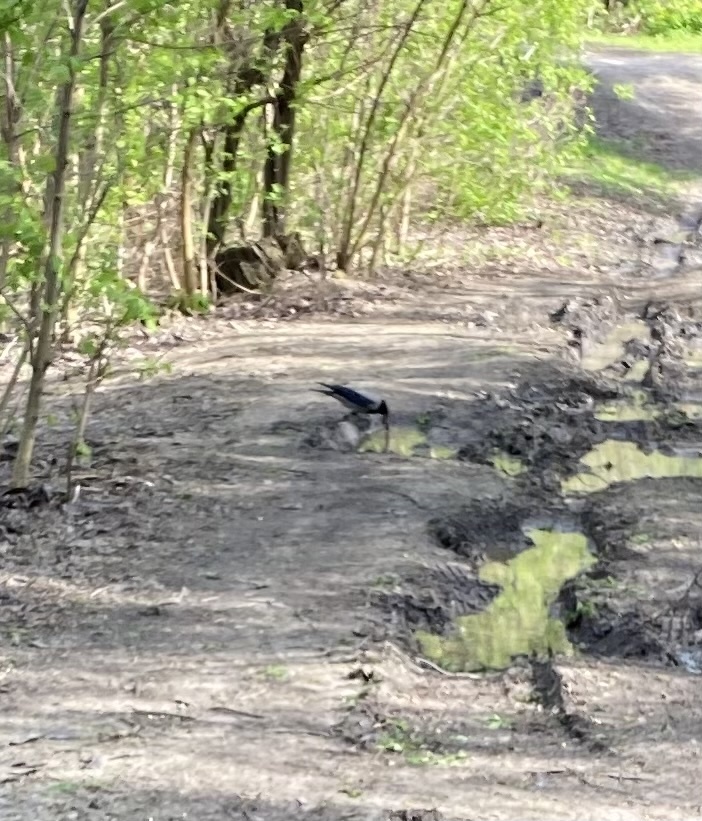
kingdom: Animalia
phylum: Chordata
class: Aves
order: Passeriformes
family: Corvidae
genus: Corvus
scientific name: Corvus cornix
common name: Hooded crow
